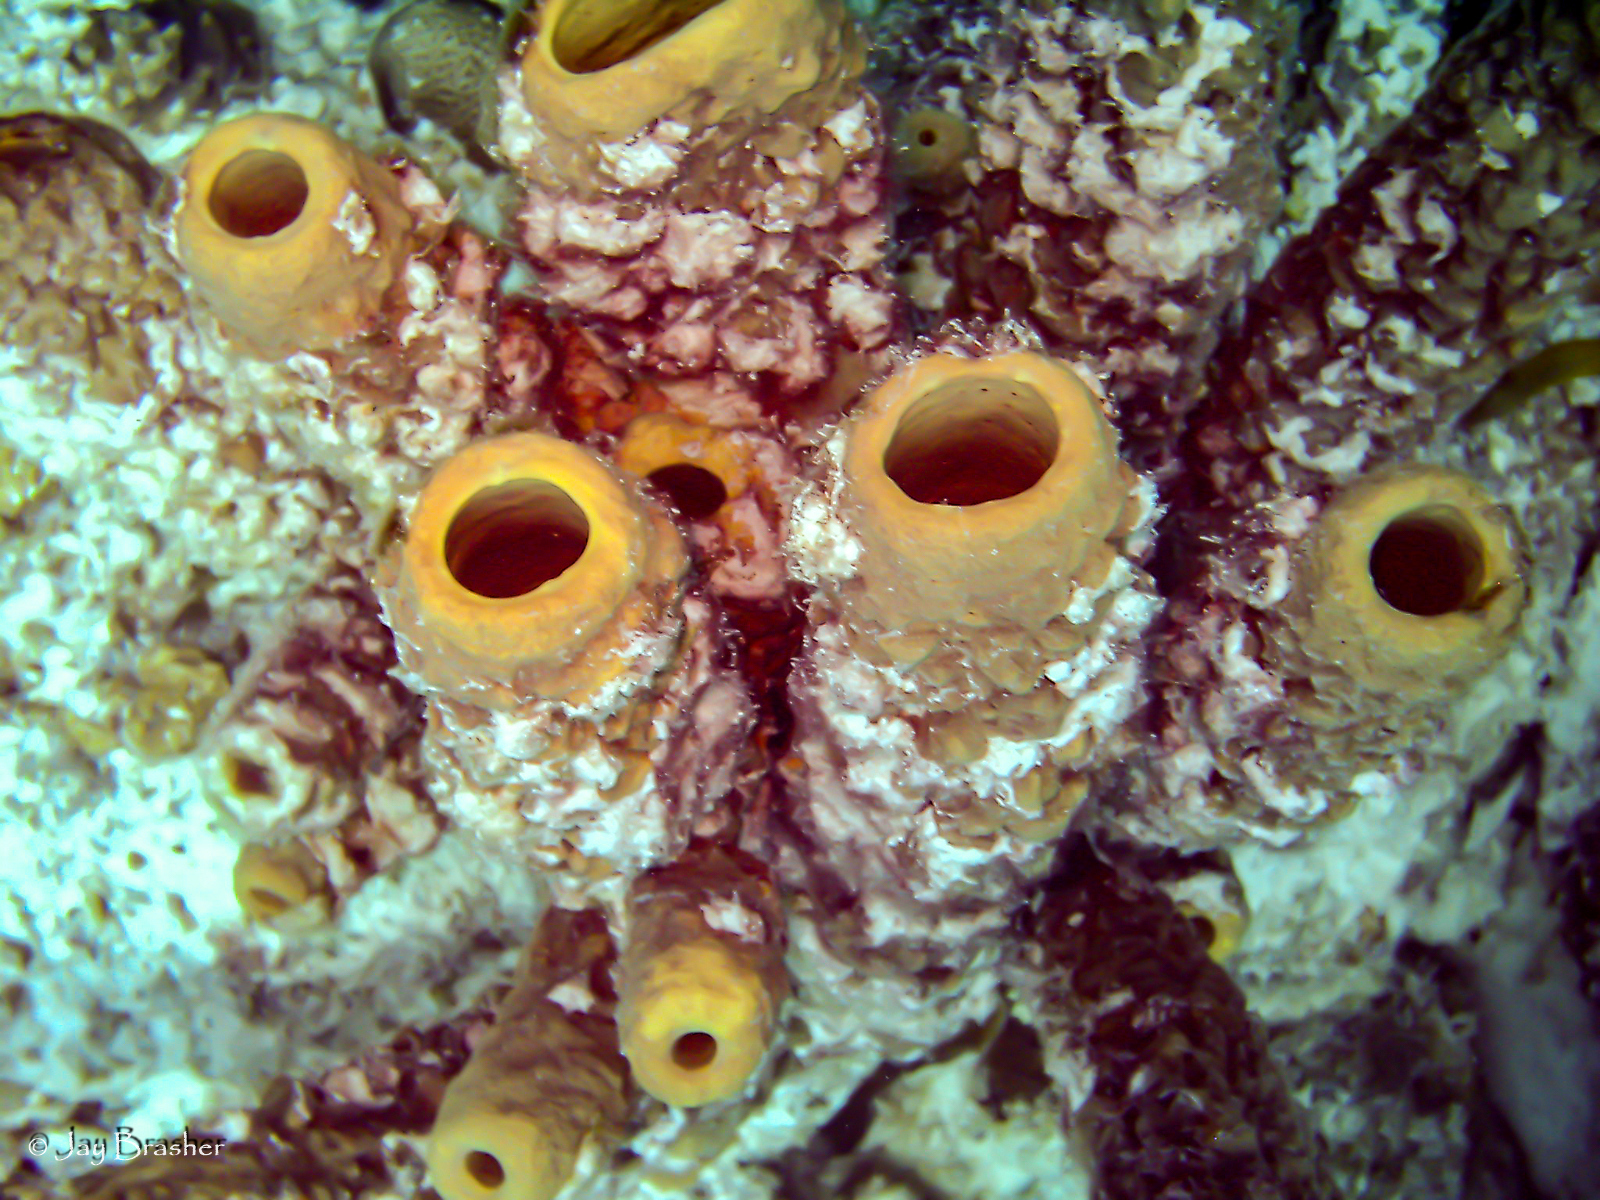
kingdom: Animalia
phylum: Porifera
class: Demospongiae
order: Verongiida
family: Aplysinidae
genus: Aplysina
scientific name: Aplysina archeri
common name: Stove-pipe sponge
